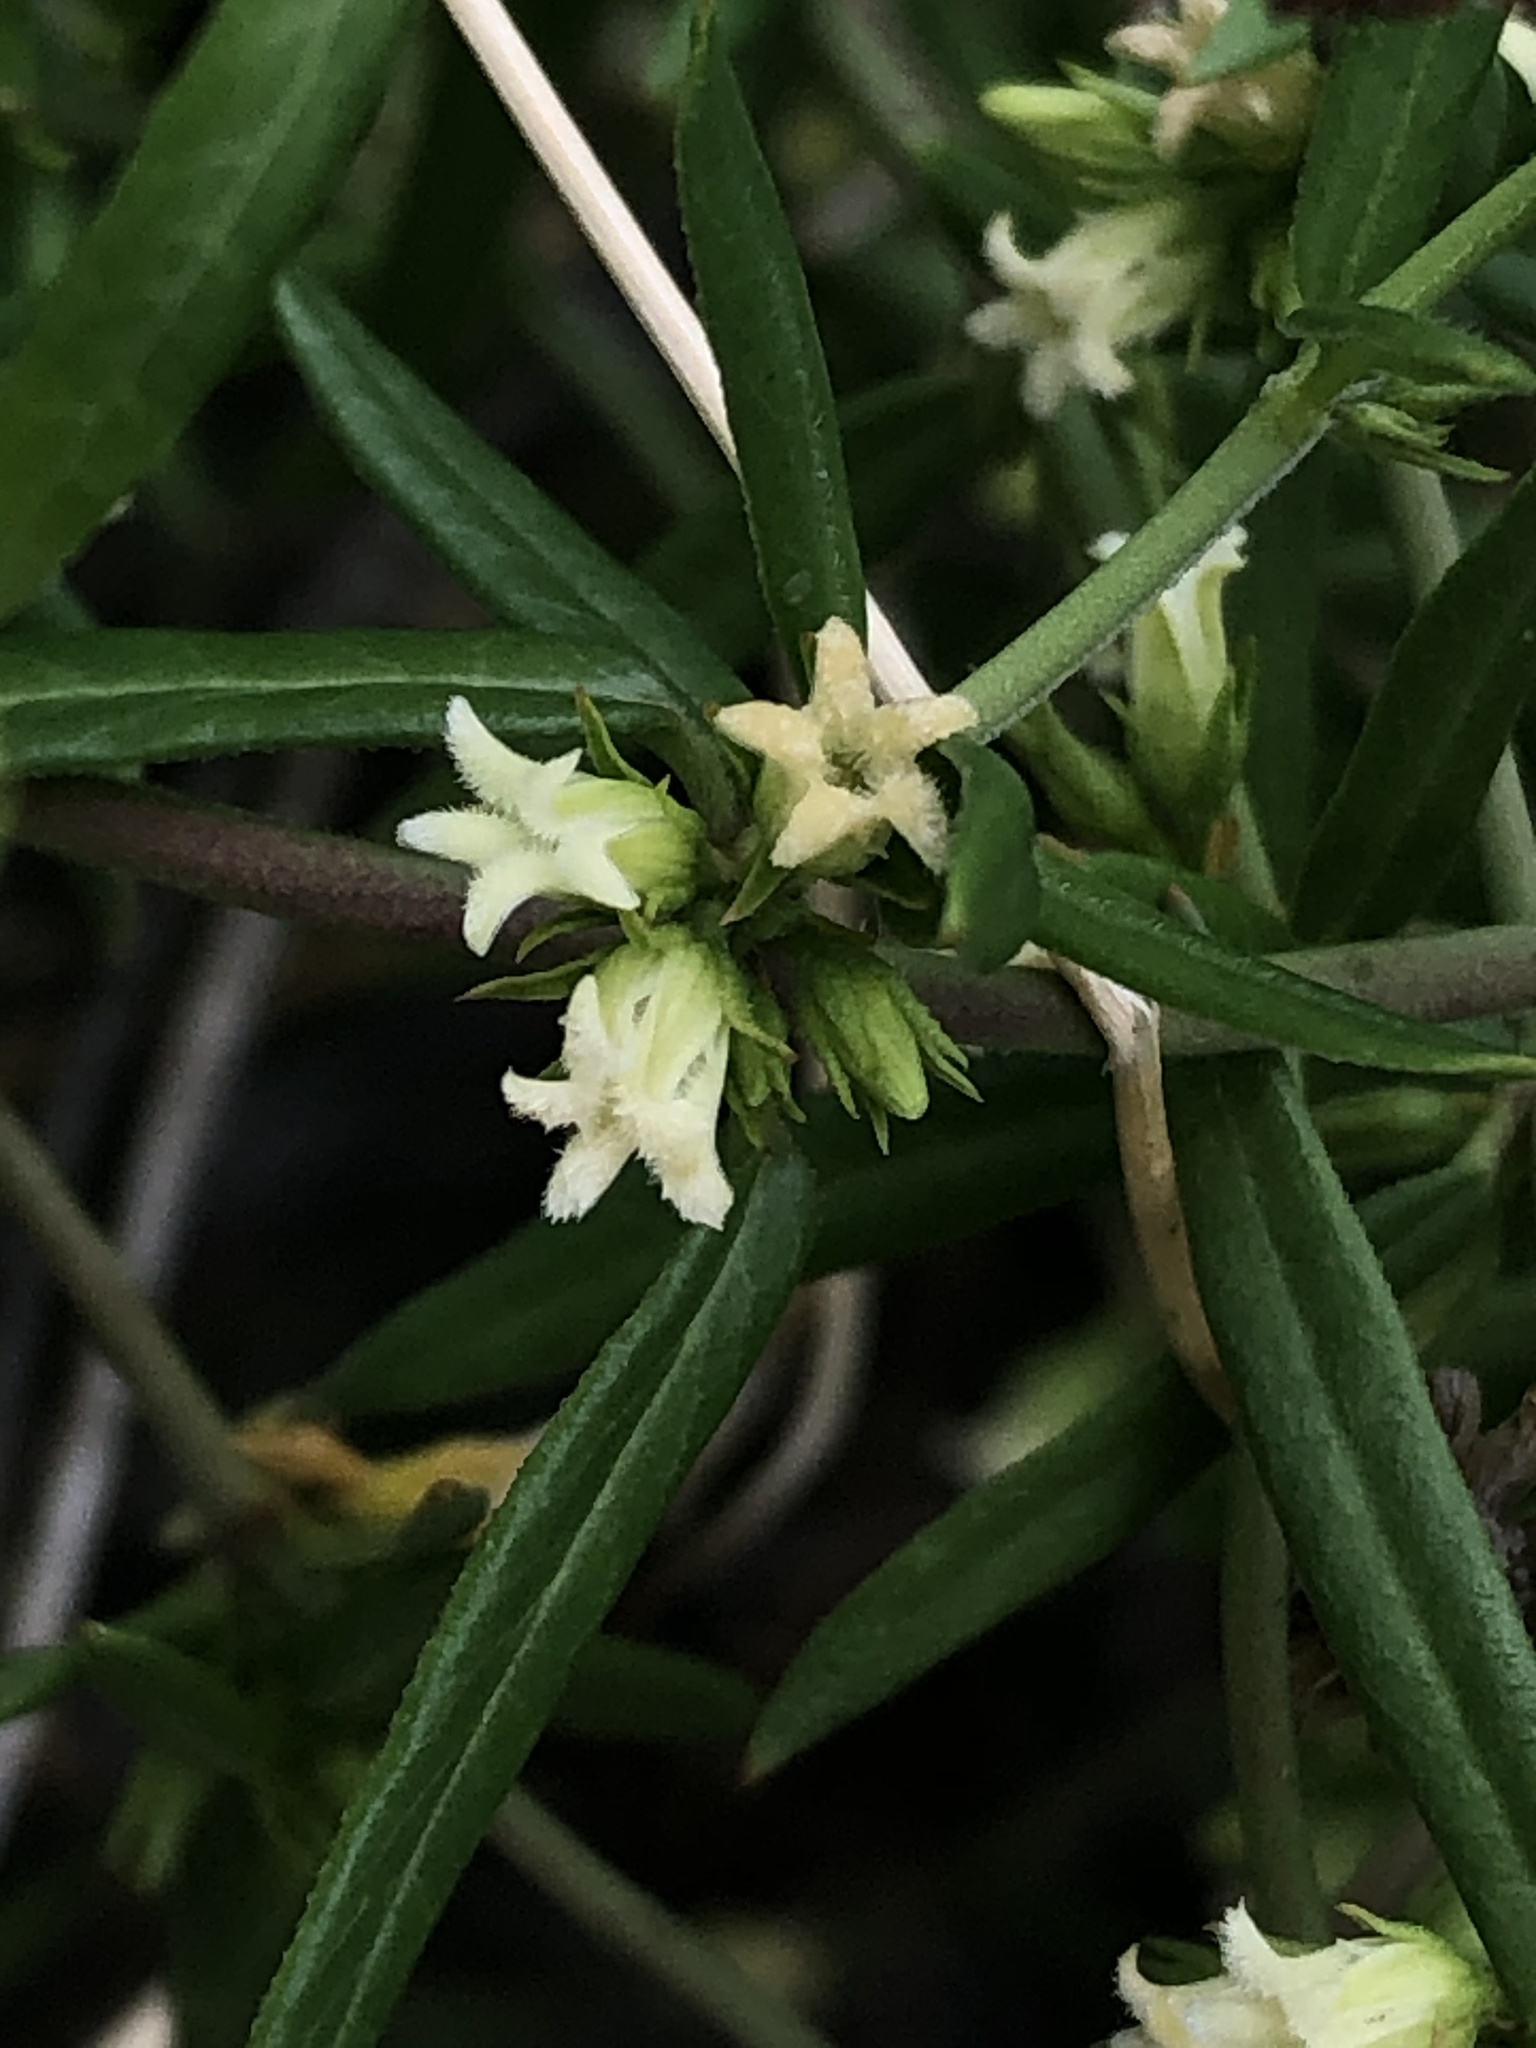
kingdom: Plantae
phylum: Tracheophyta
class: Magnoliopsida
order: Gentianales
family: Apocynaceae
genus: Metastelma
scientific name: Metastelma arizonicum
